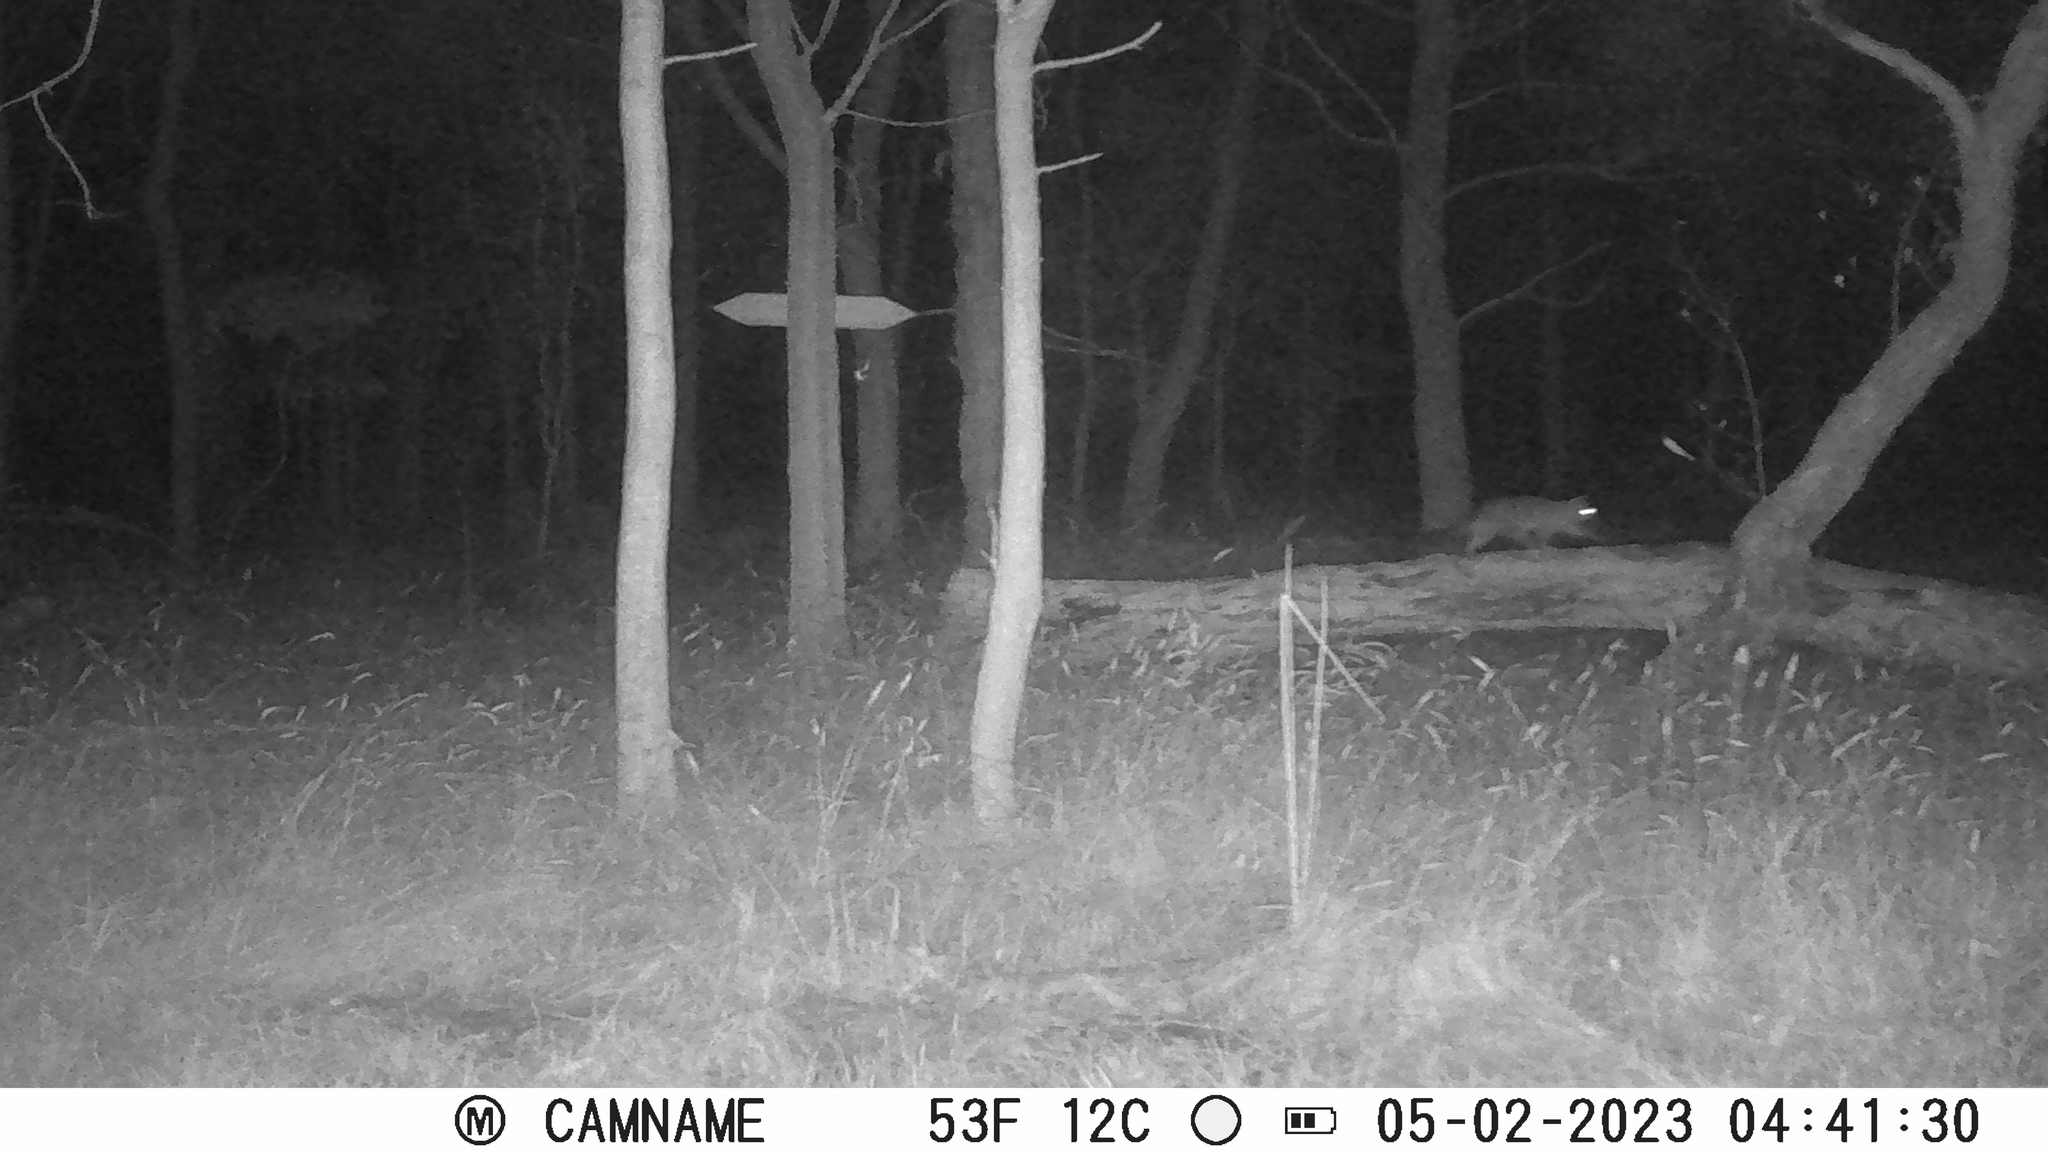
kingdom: Animalia
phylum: Chordata
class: Mammalia
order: Diprotodontia
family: Phalangeridae
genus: Trichosurus
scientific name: Trichosurus vulpecula
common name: Common brushtail
